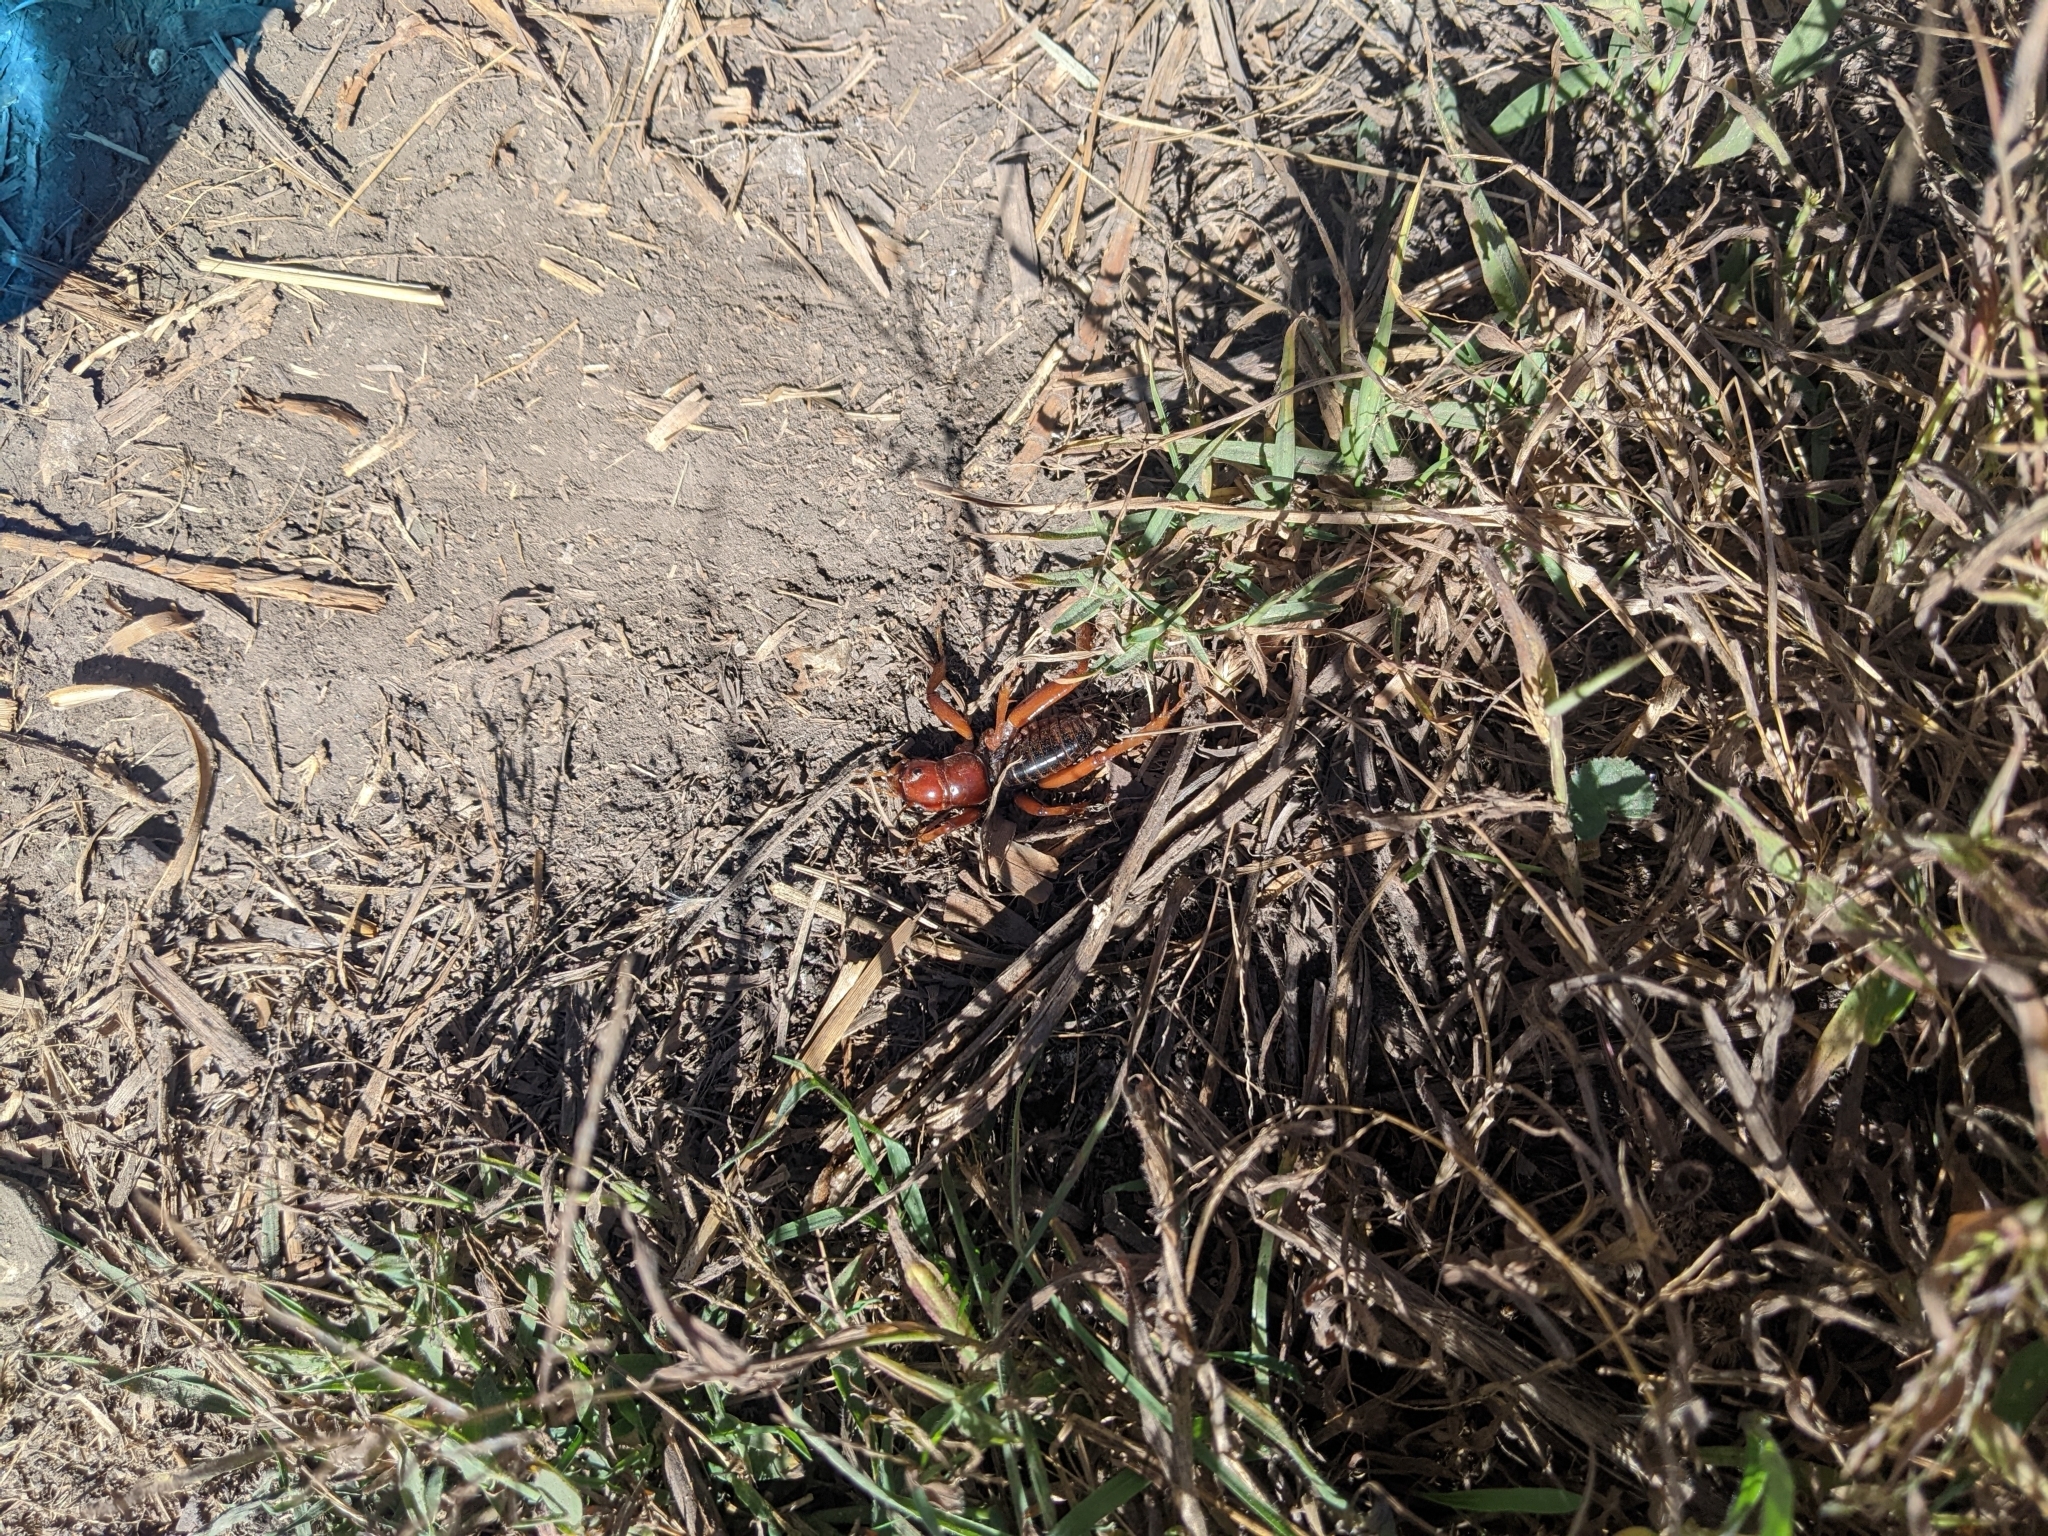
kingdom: Animalia
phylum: Arthropoda
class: Insecta
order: Orthoptera
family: Stenopelmatidae
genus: Stenopelmatus
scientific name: Stenopelmatus talpa
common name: Mole jerusalem cricket
